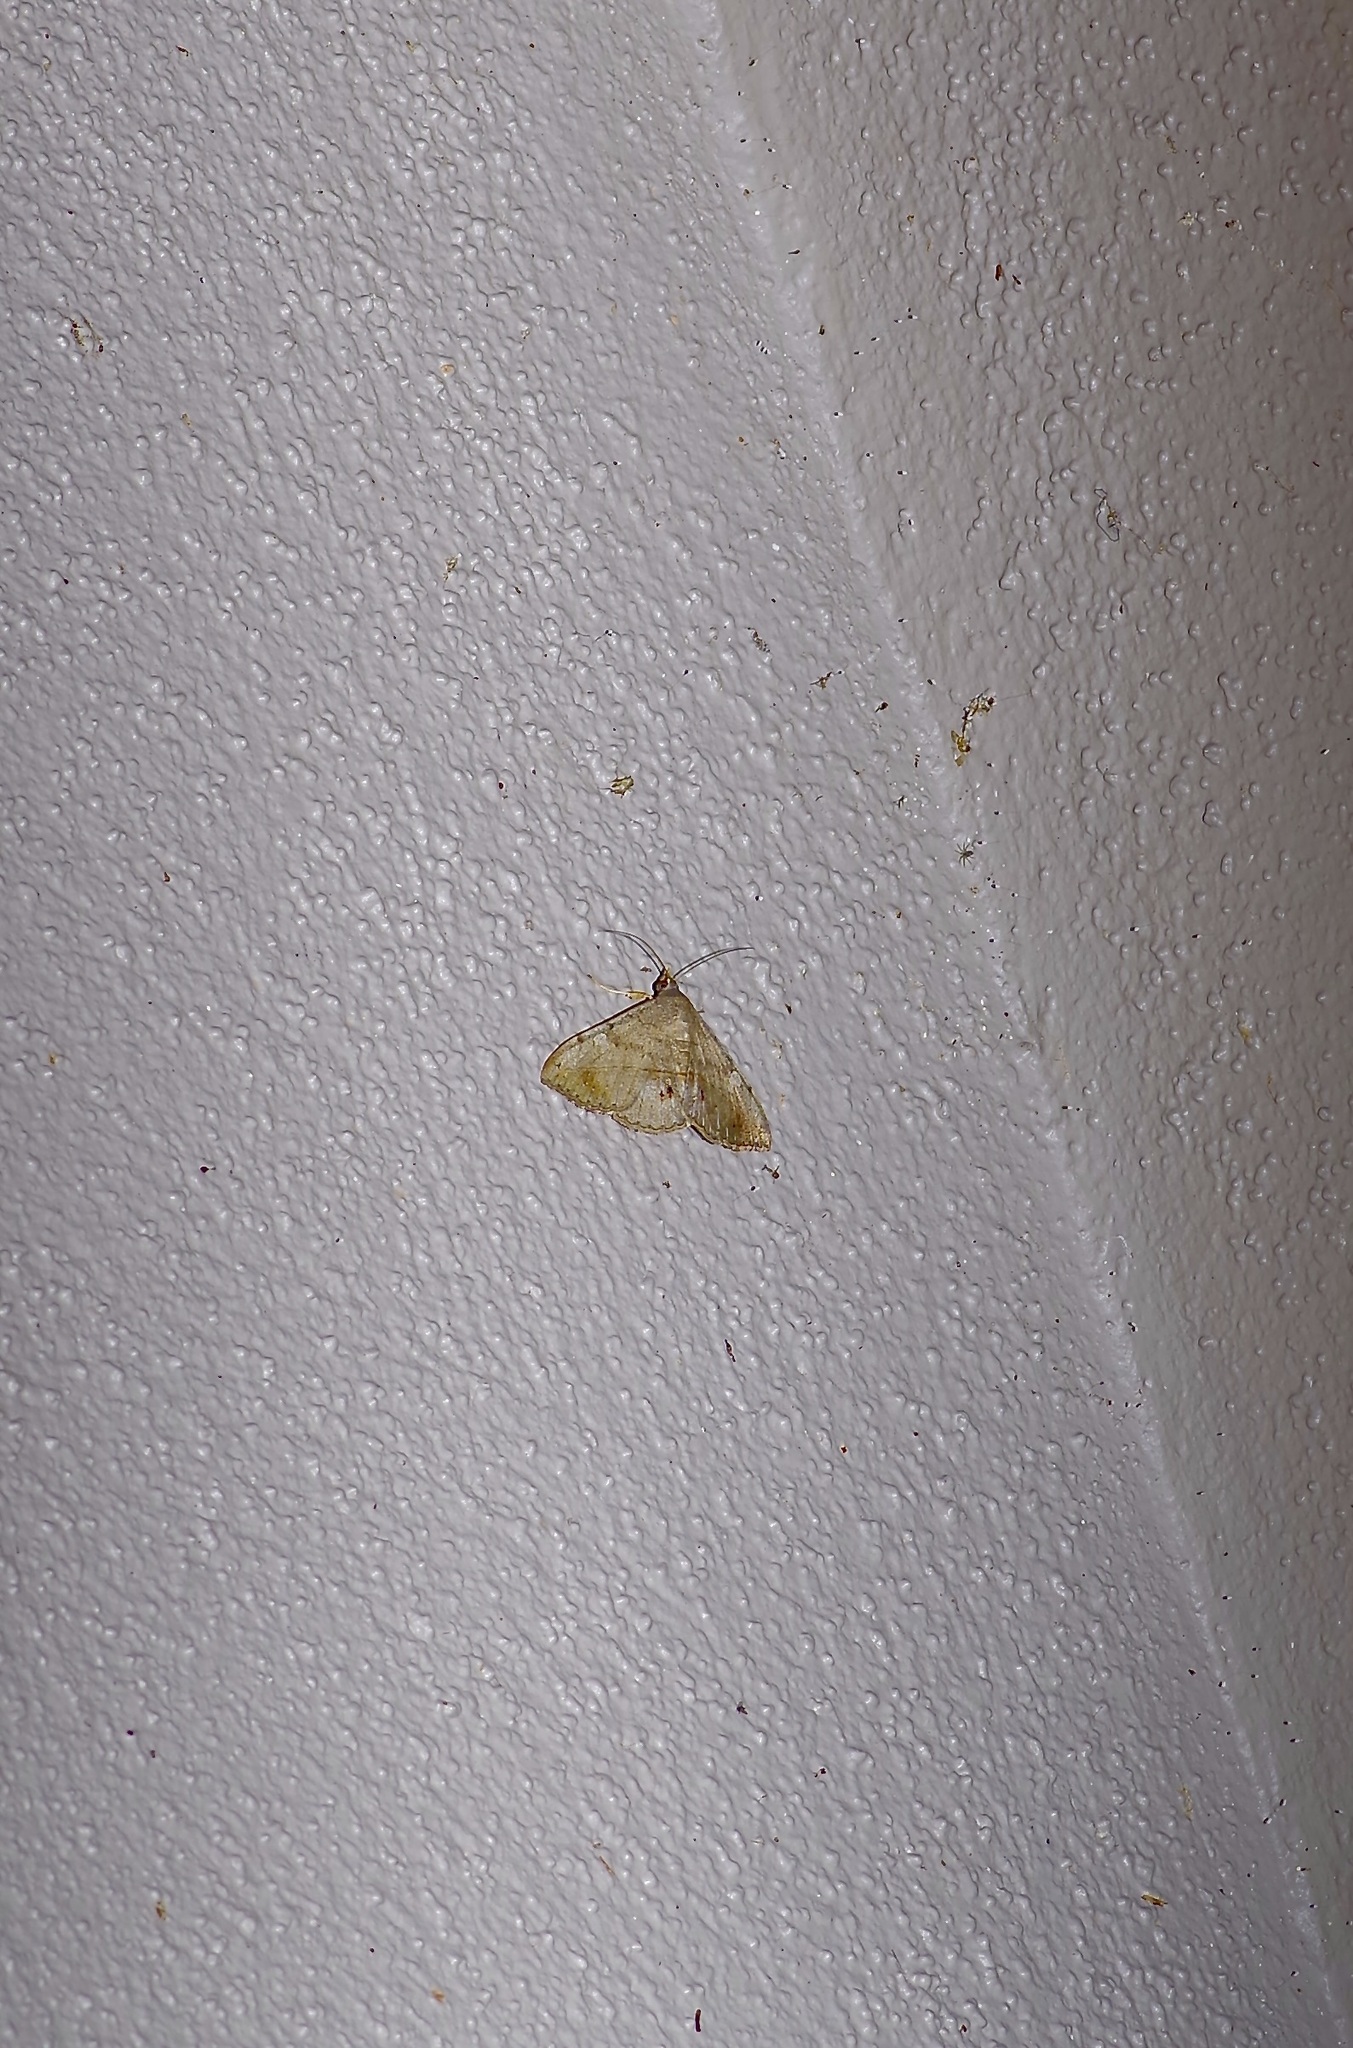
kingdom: Animalia
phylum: Arthropoda
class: Insecta
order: Lepidoptera
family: Erebidae
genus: Anticarsia
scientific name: Anticarsia gemmatalis
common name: Cutworm moth
